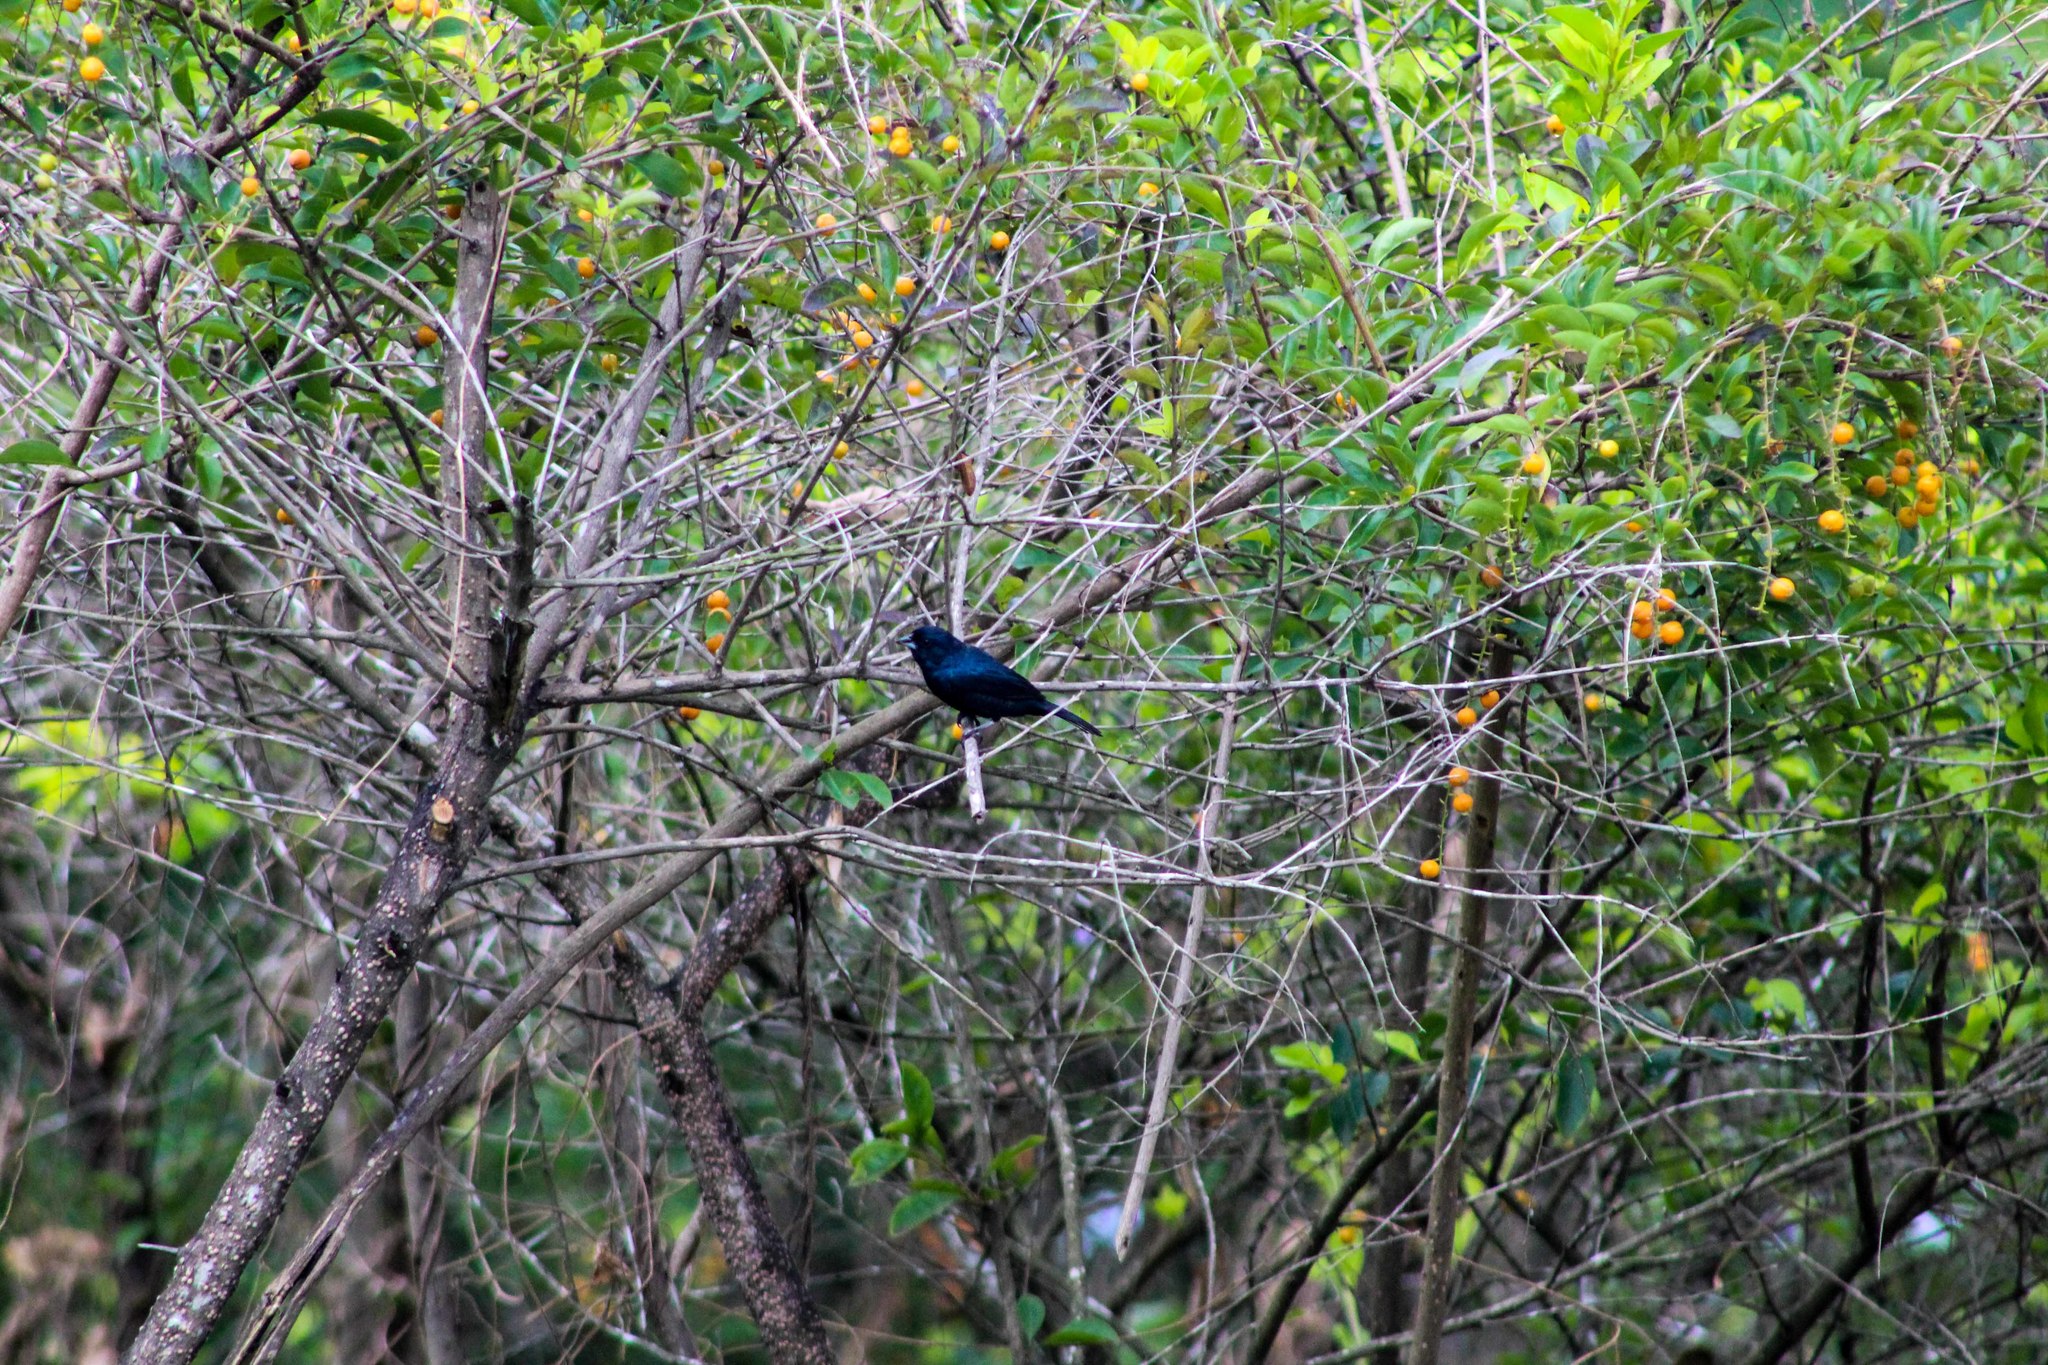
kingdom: Animalia
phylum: Chordata
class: Aves
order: Passeriformes
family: Thraupidae
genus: Volatinia
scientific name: Volatinia jacarina
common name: Blue-black grassquit
